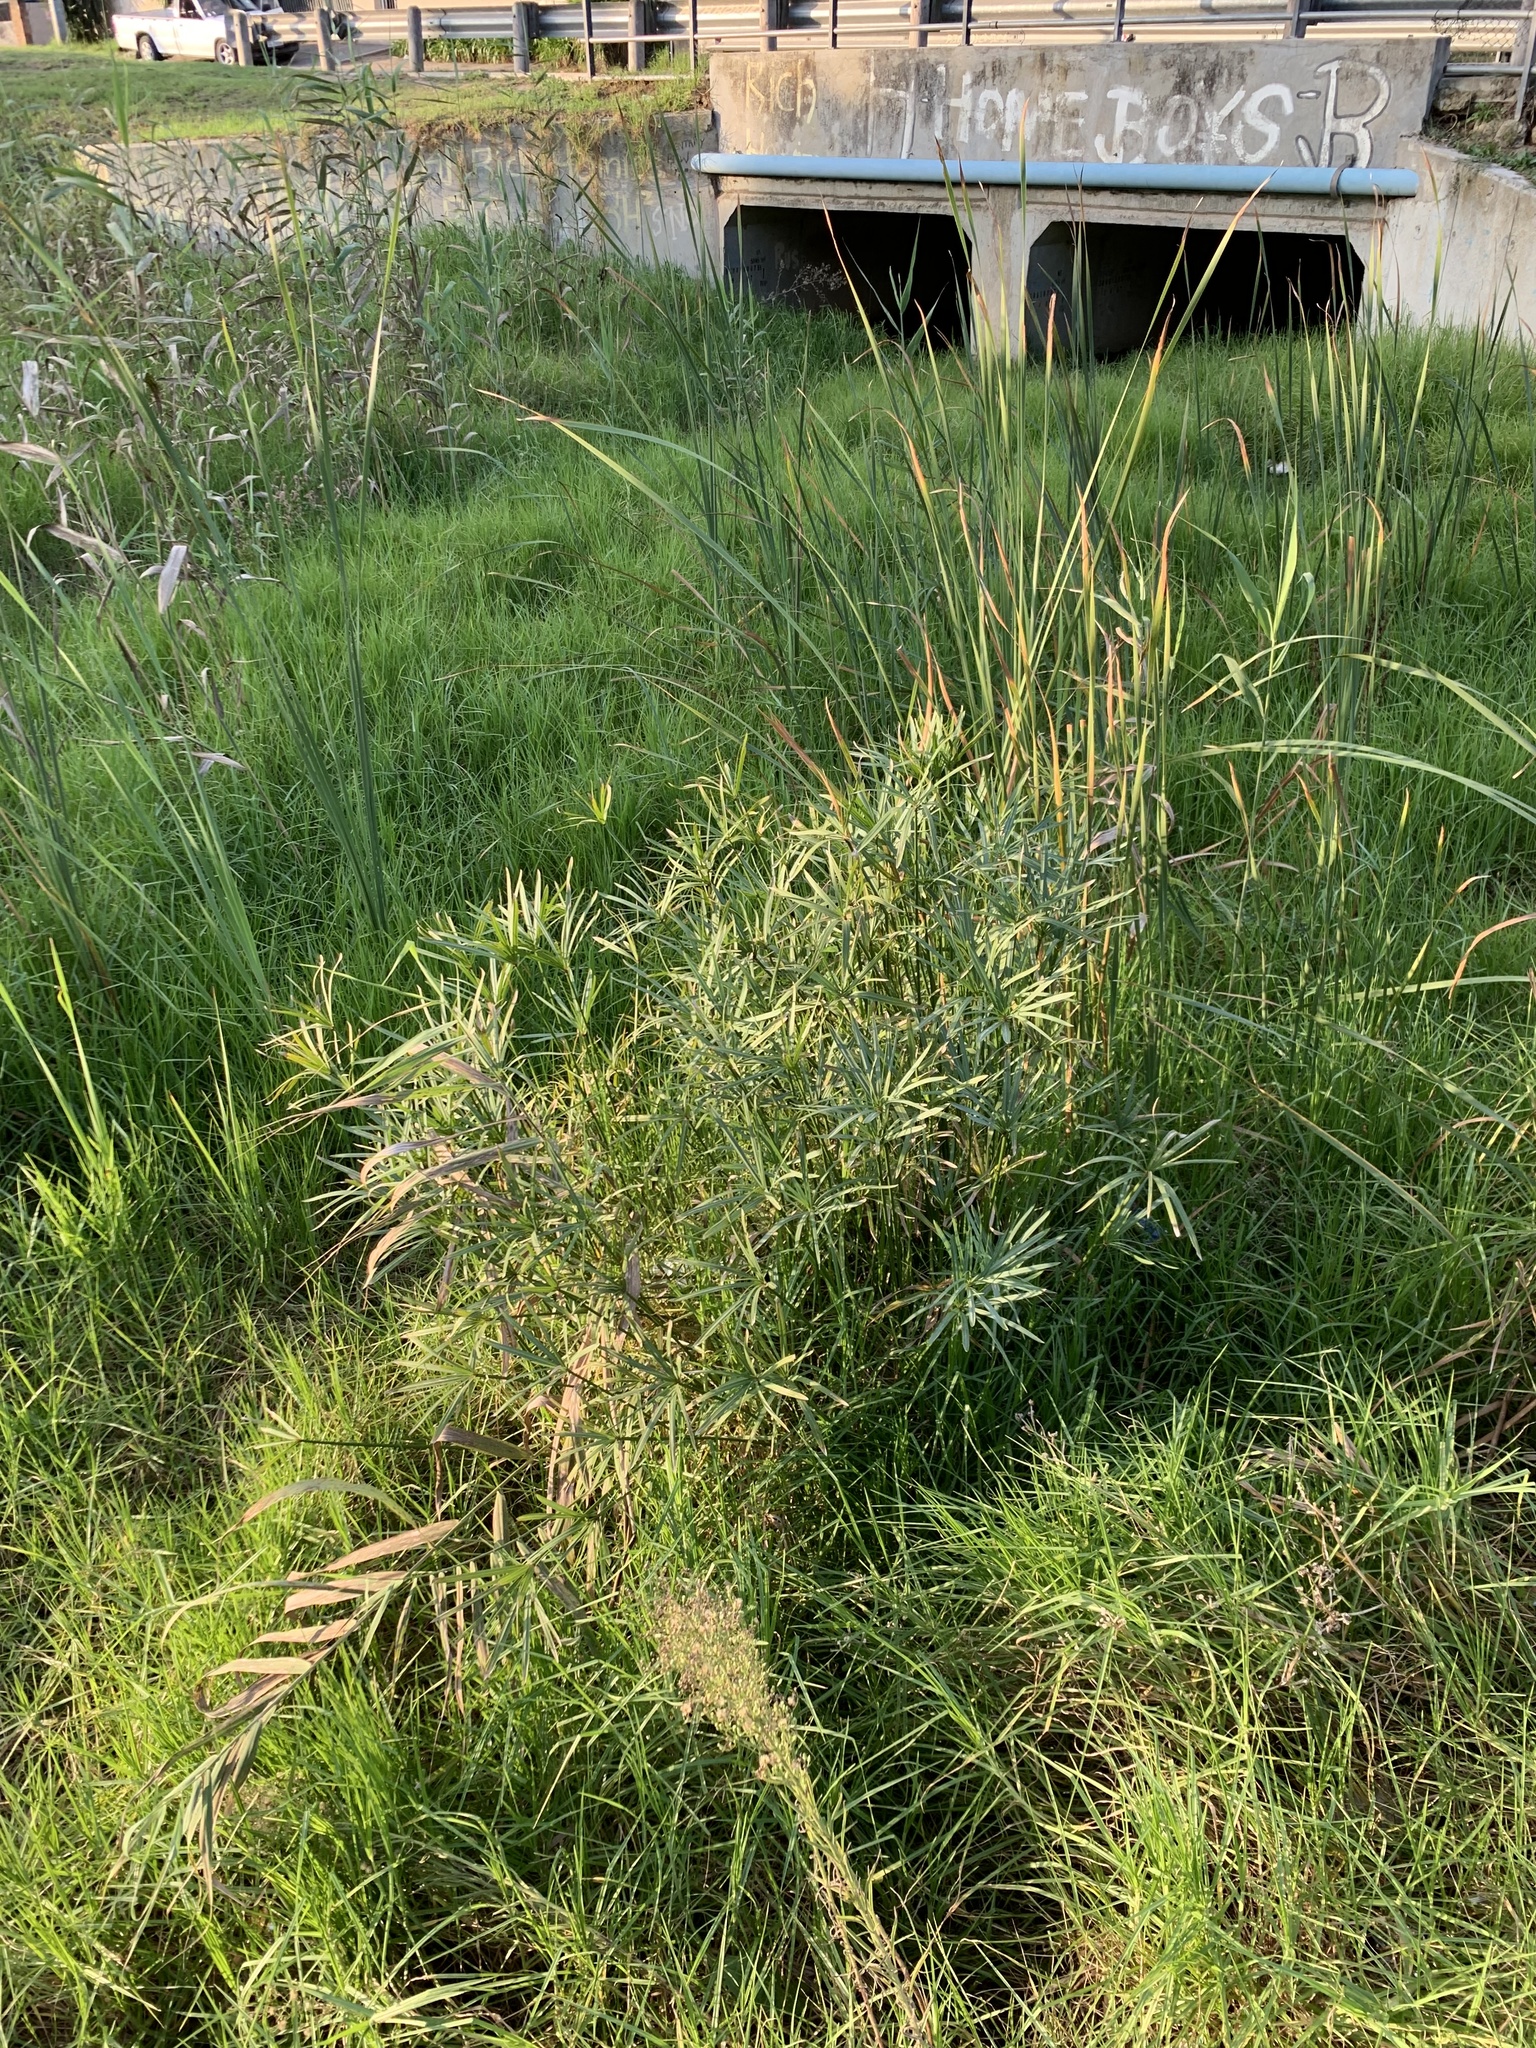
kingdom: Plantae
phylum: Tracheophyta
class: Liliopsida
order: Poales
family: Cyperaceae
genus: Cyperus
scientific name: Cyperus textilis
